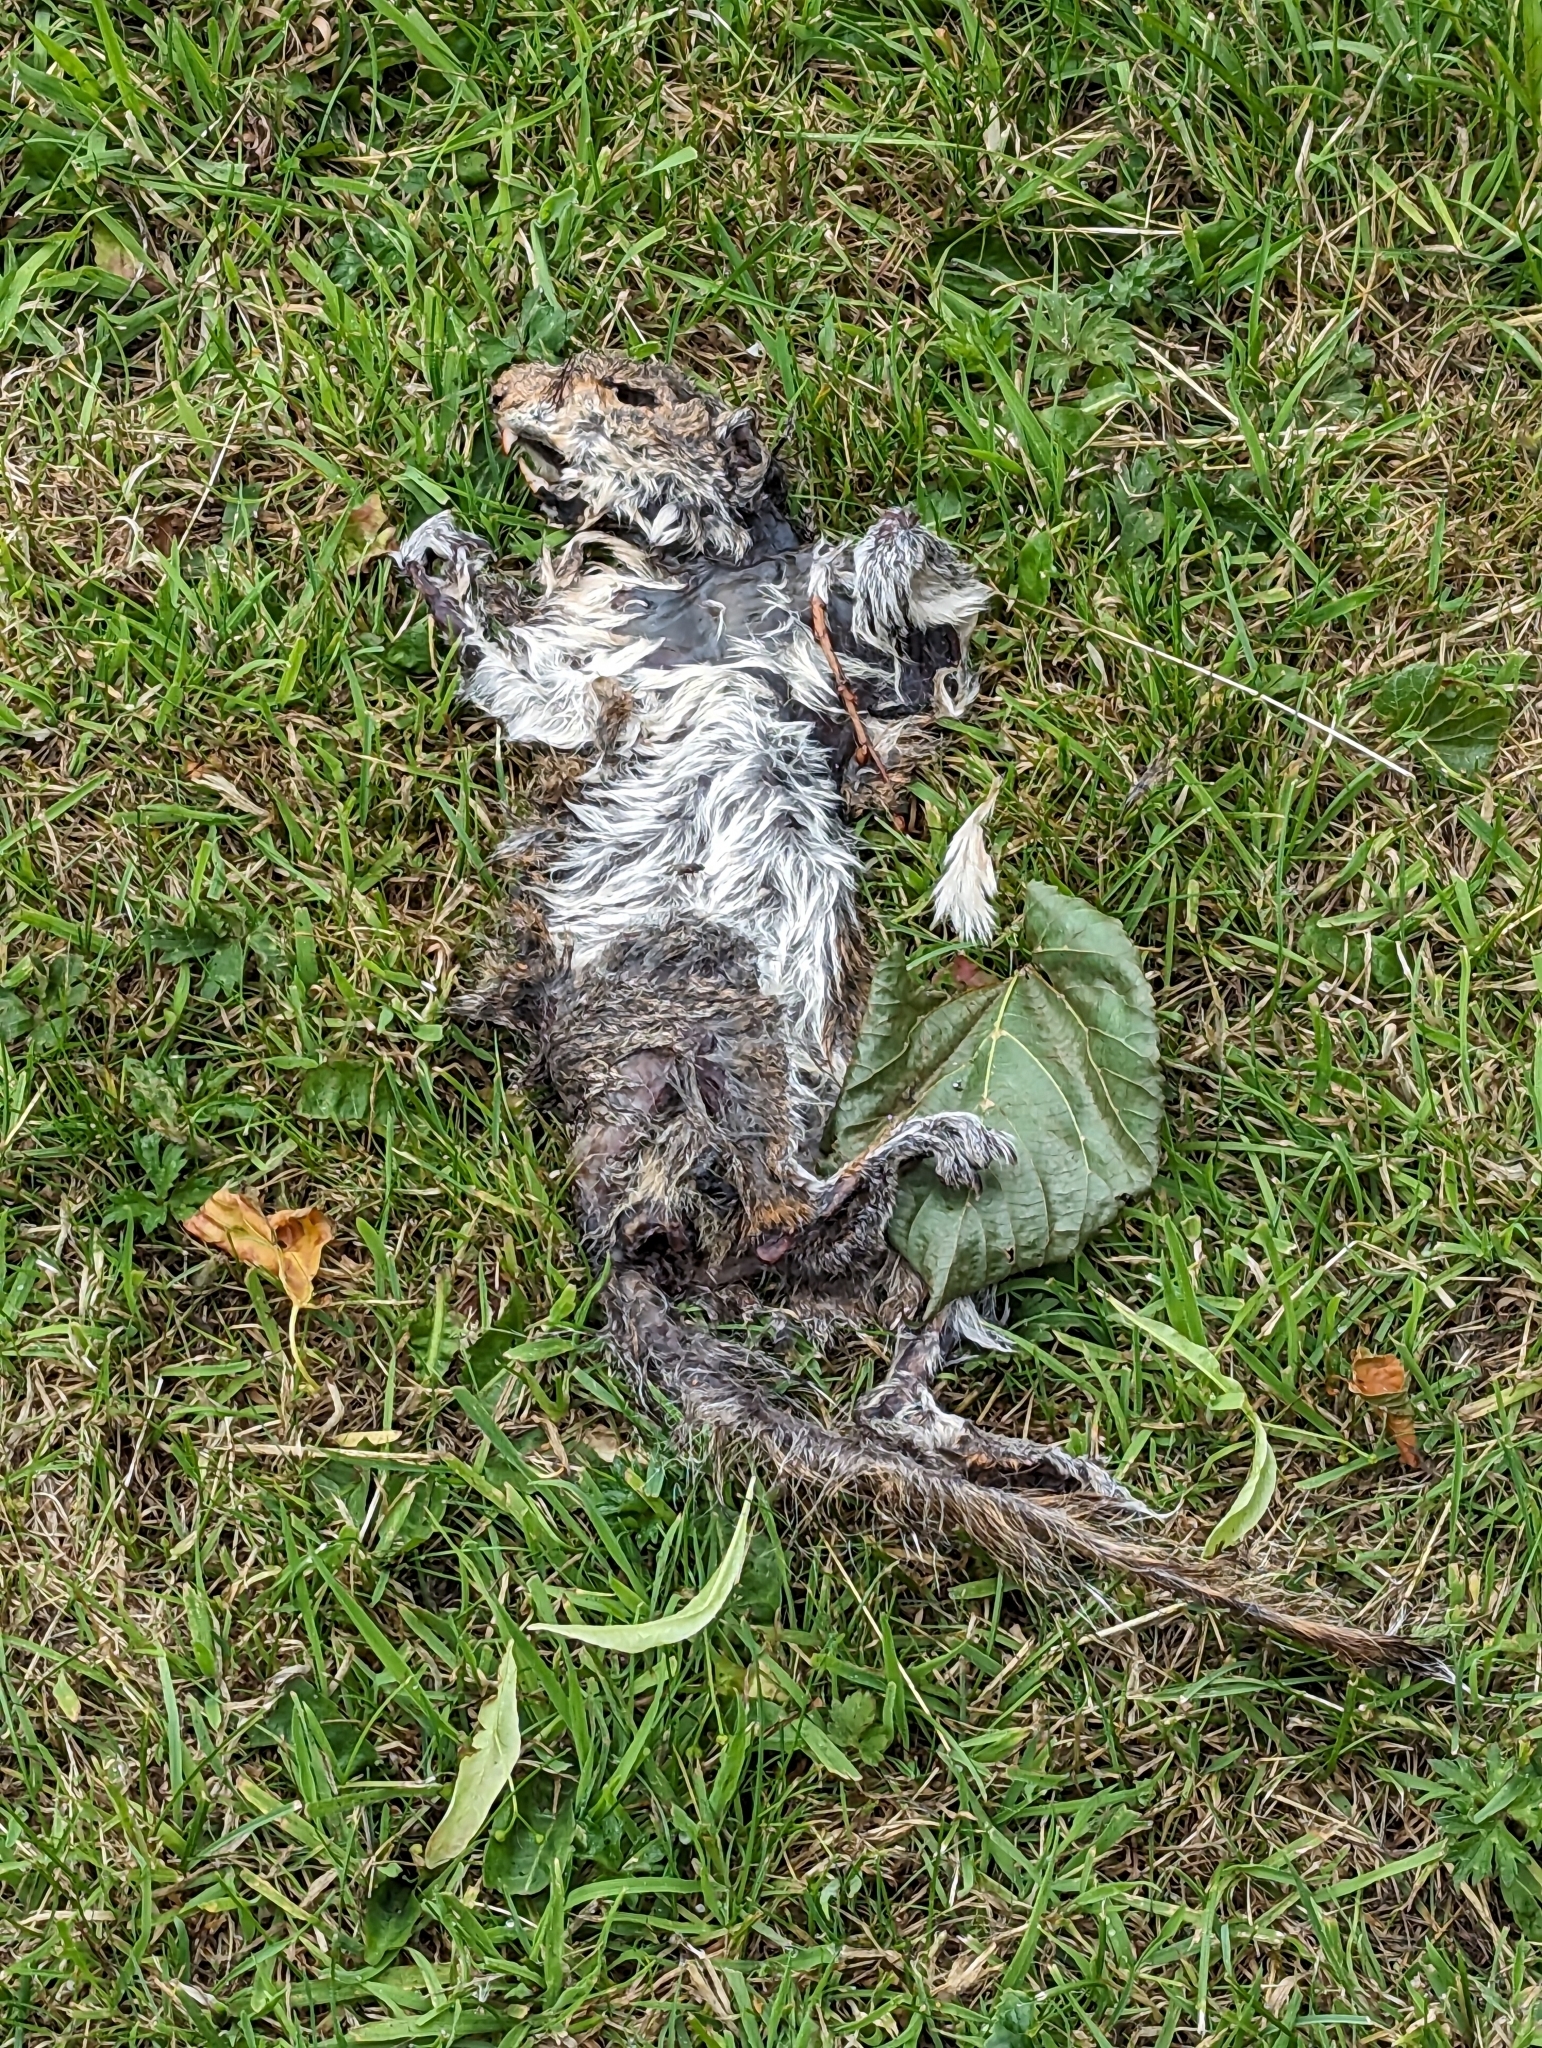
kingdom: Animalia
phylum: Chordata
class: Mammalia
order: Rodentia
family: Sciuridae
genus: Sciurus
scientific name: Sciurus carolinensis
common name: Eastern gray squirrel
